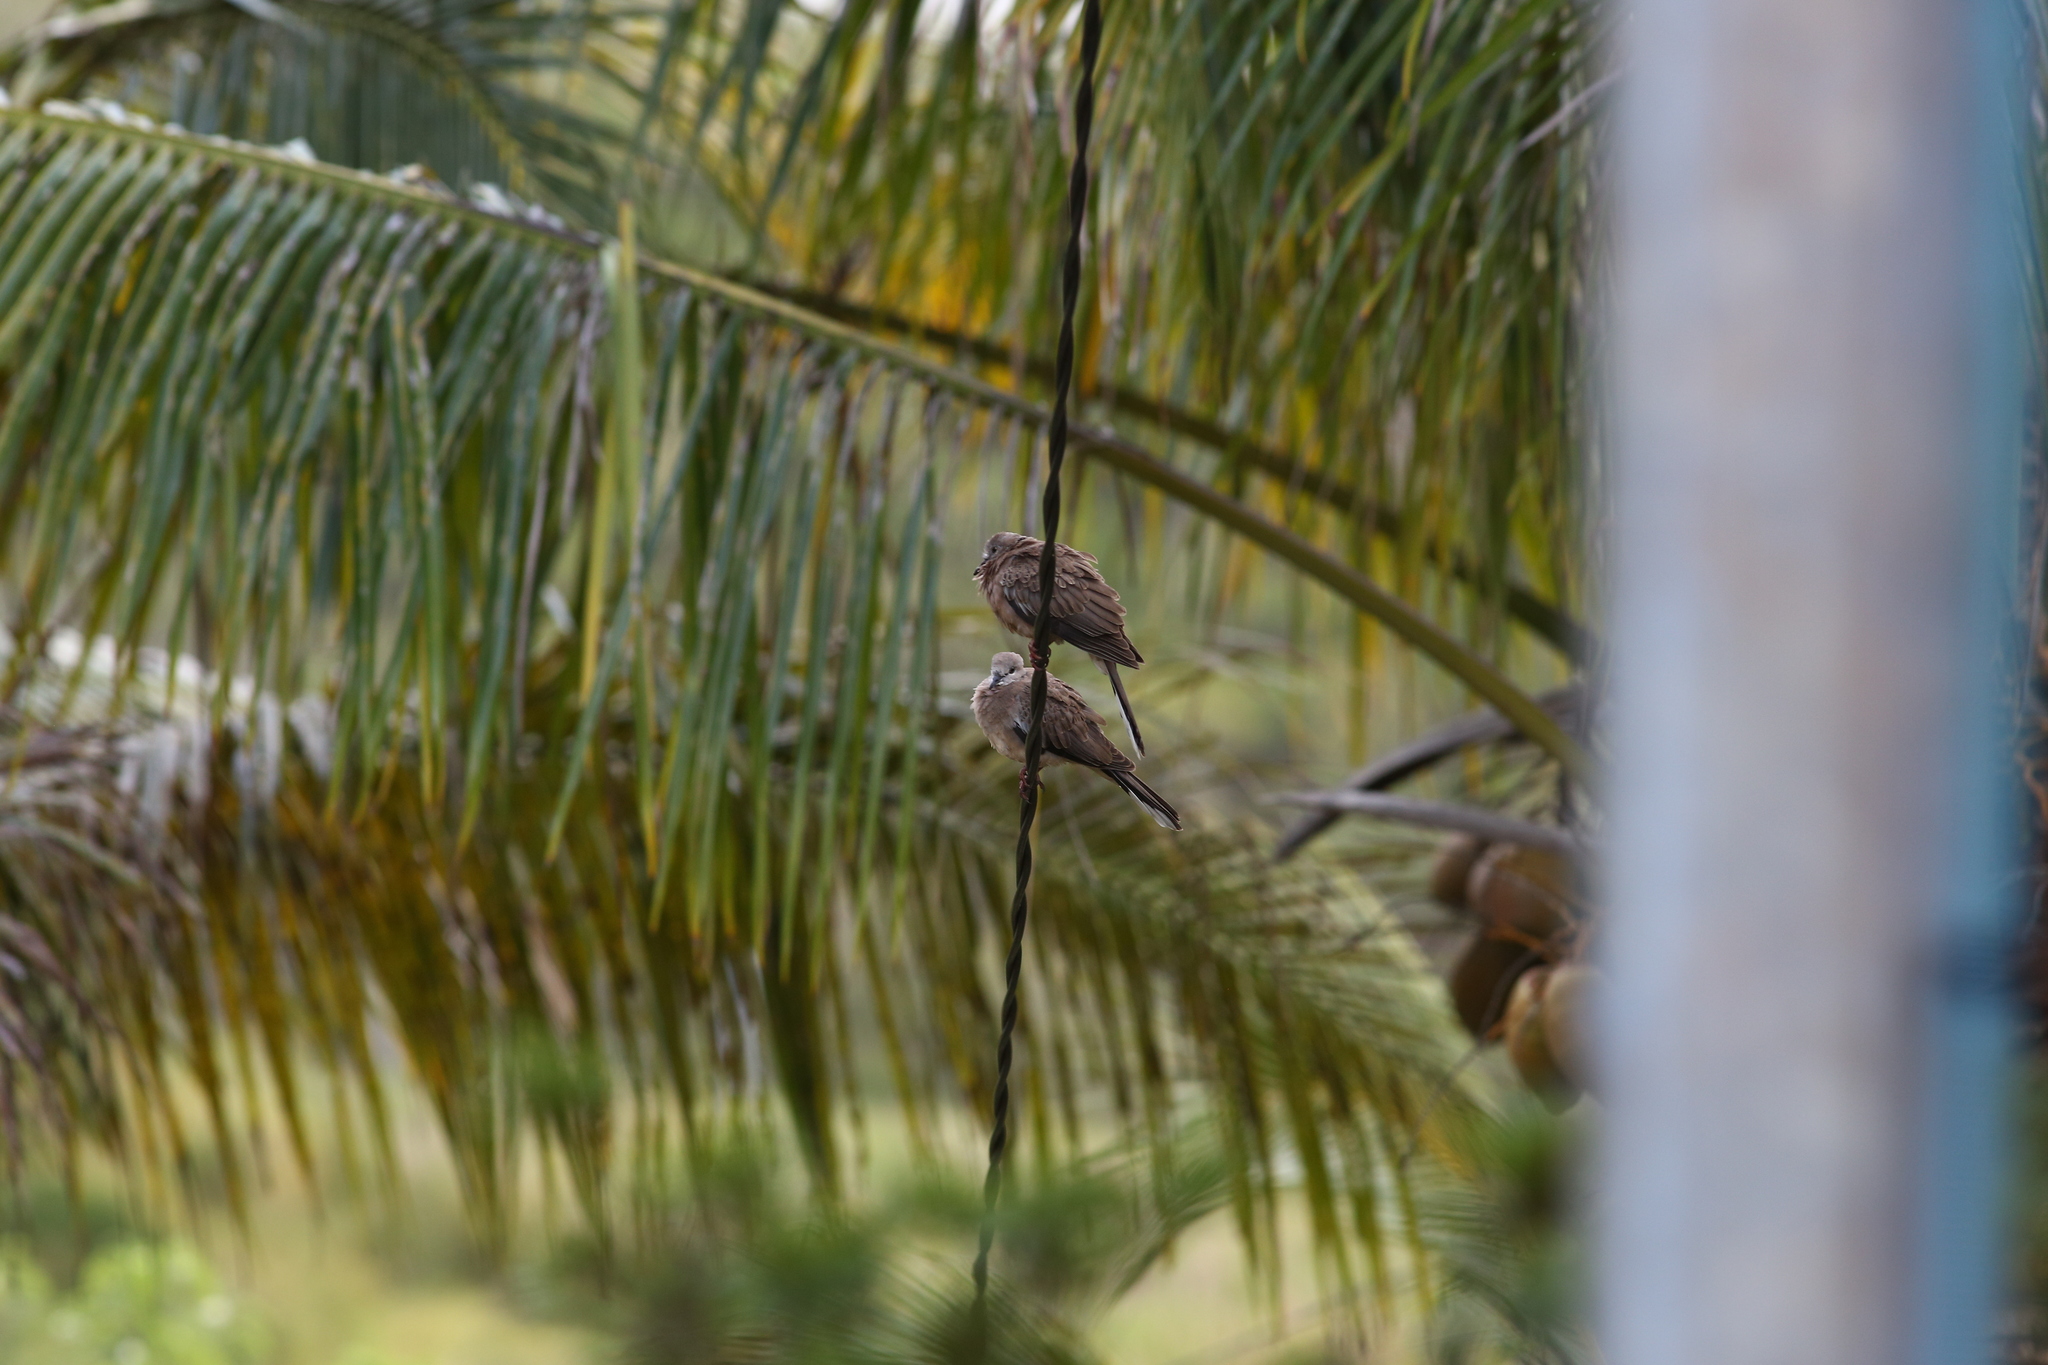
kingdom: Animalia
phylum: Chordata
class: Aves
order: Columbiformes
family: Columbidae
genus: Spilopelia
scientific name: Spilopelia chinensis
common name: Spotted dove
